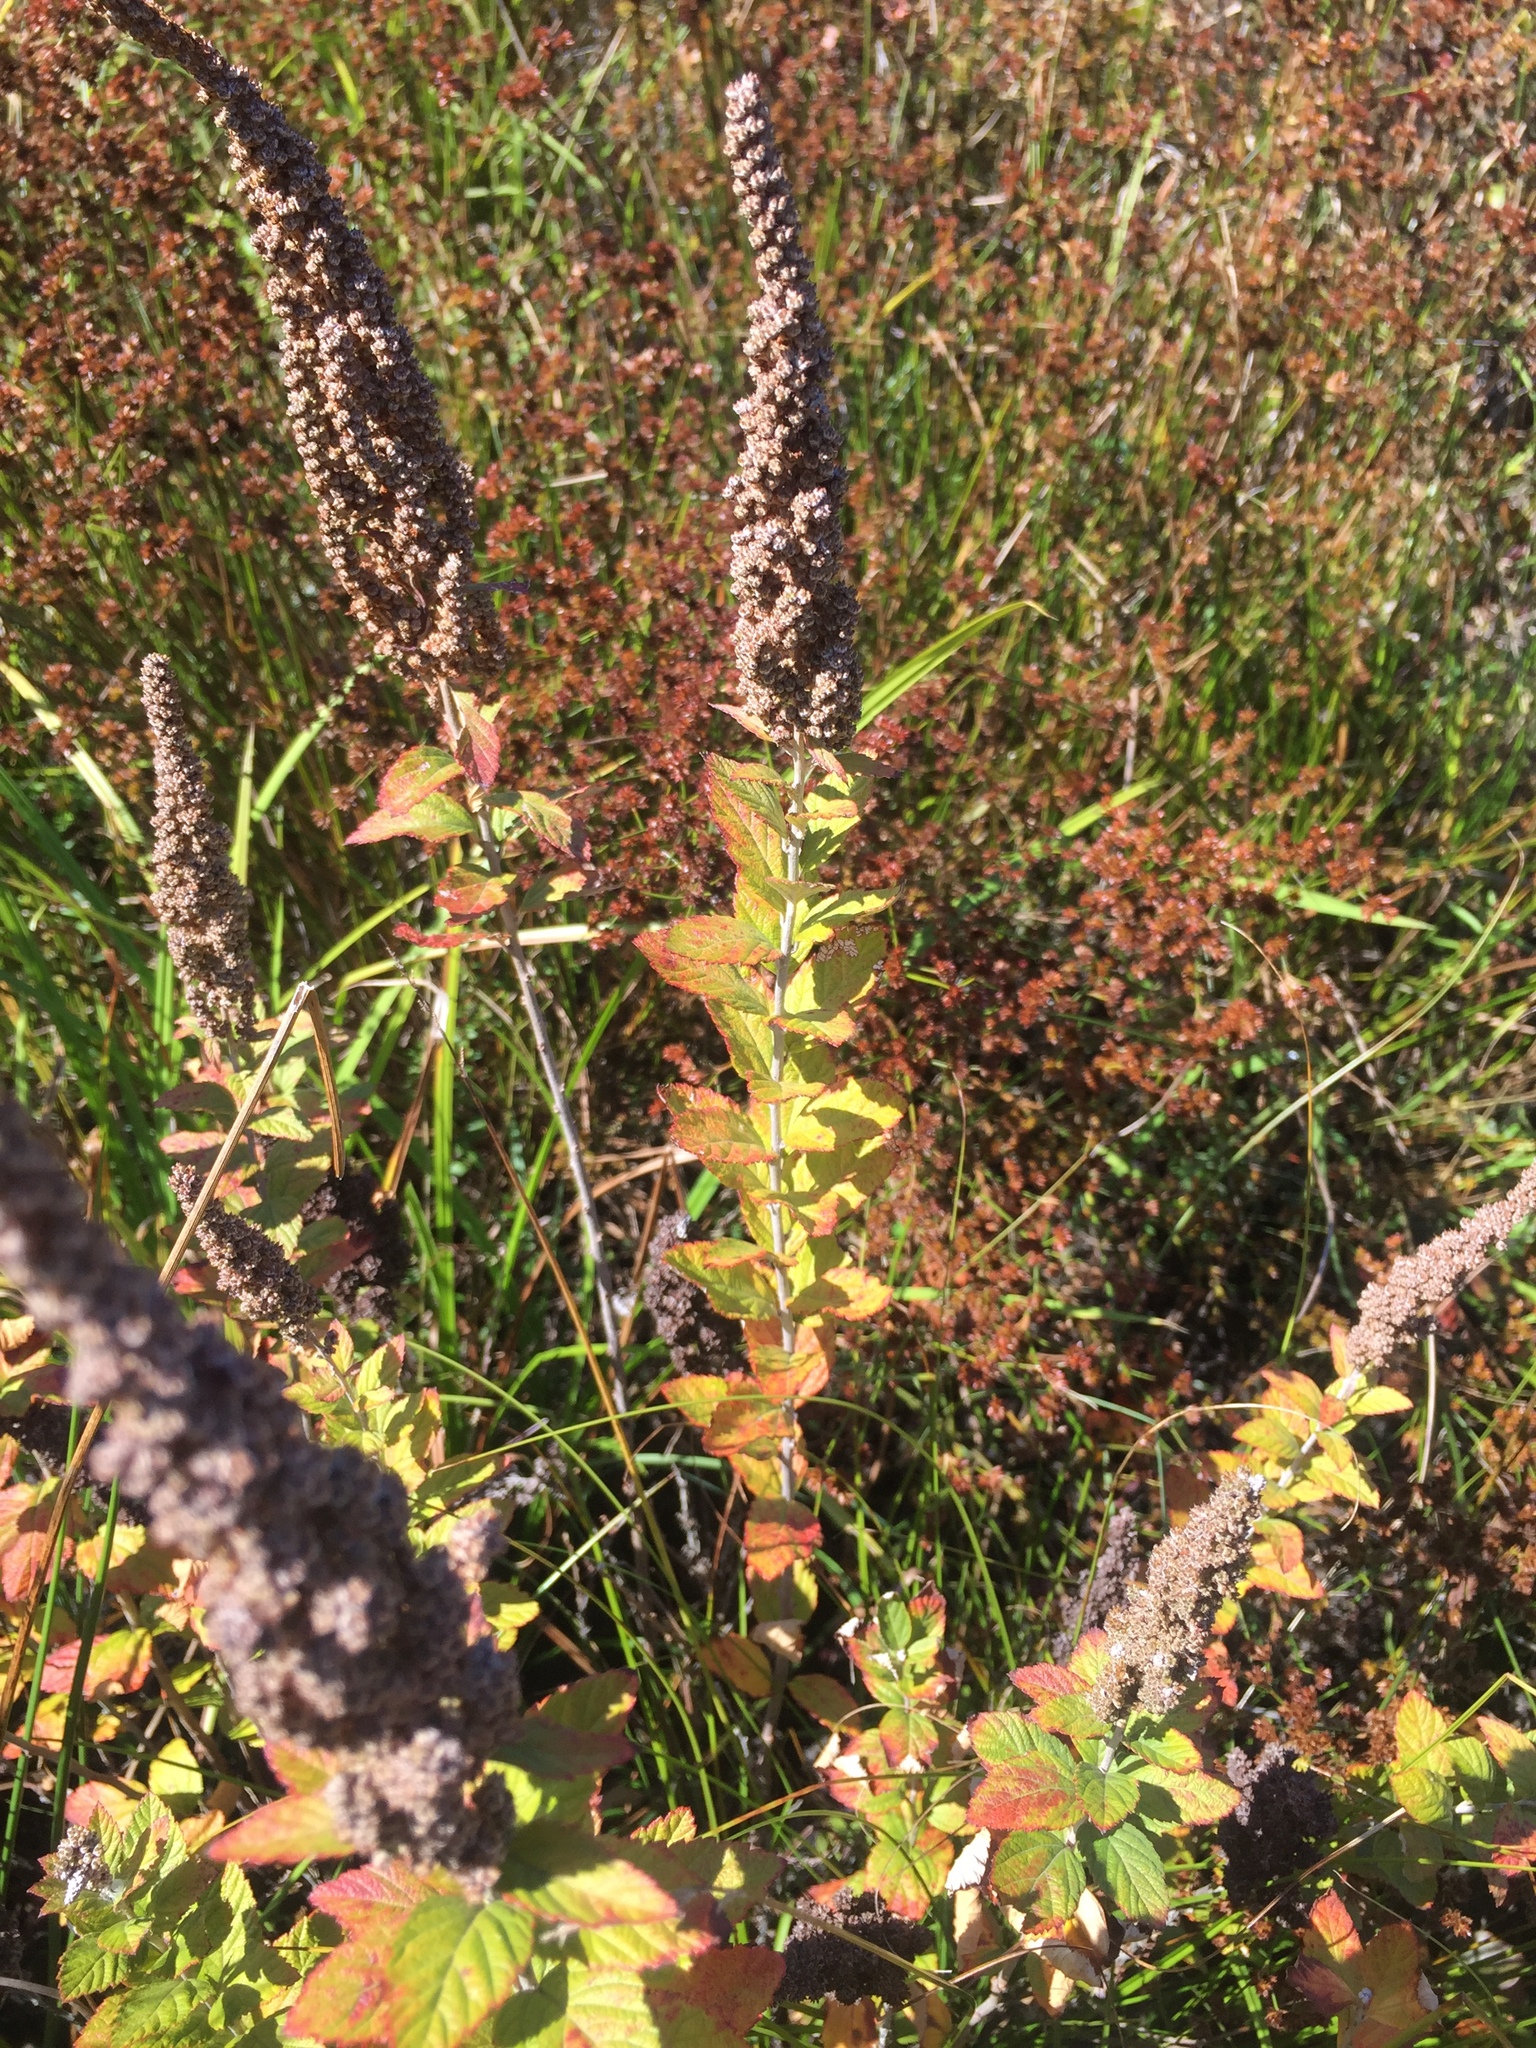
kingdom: Plantae
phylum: Tracheophyta
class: Magnoliopsida
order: Rosales
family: Rosaceae
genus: Spiraea
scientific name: Spiraea tomentosa
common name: Hardhack
